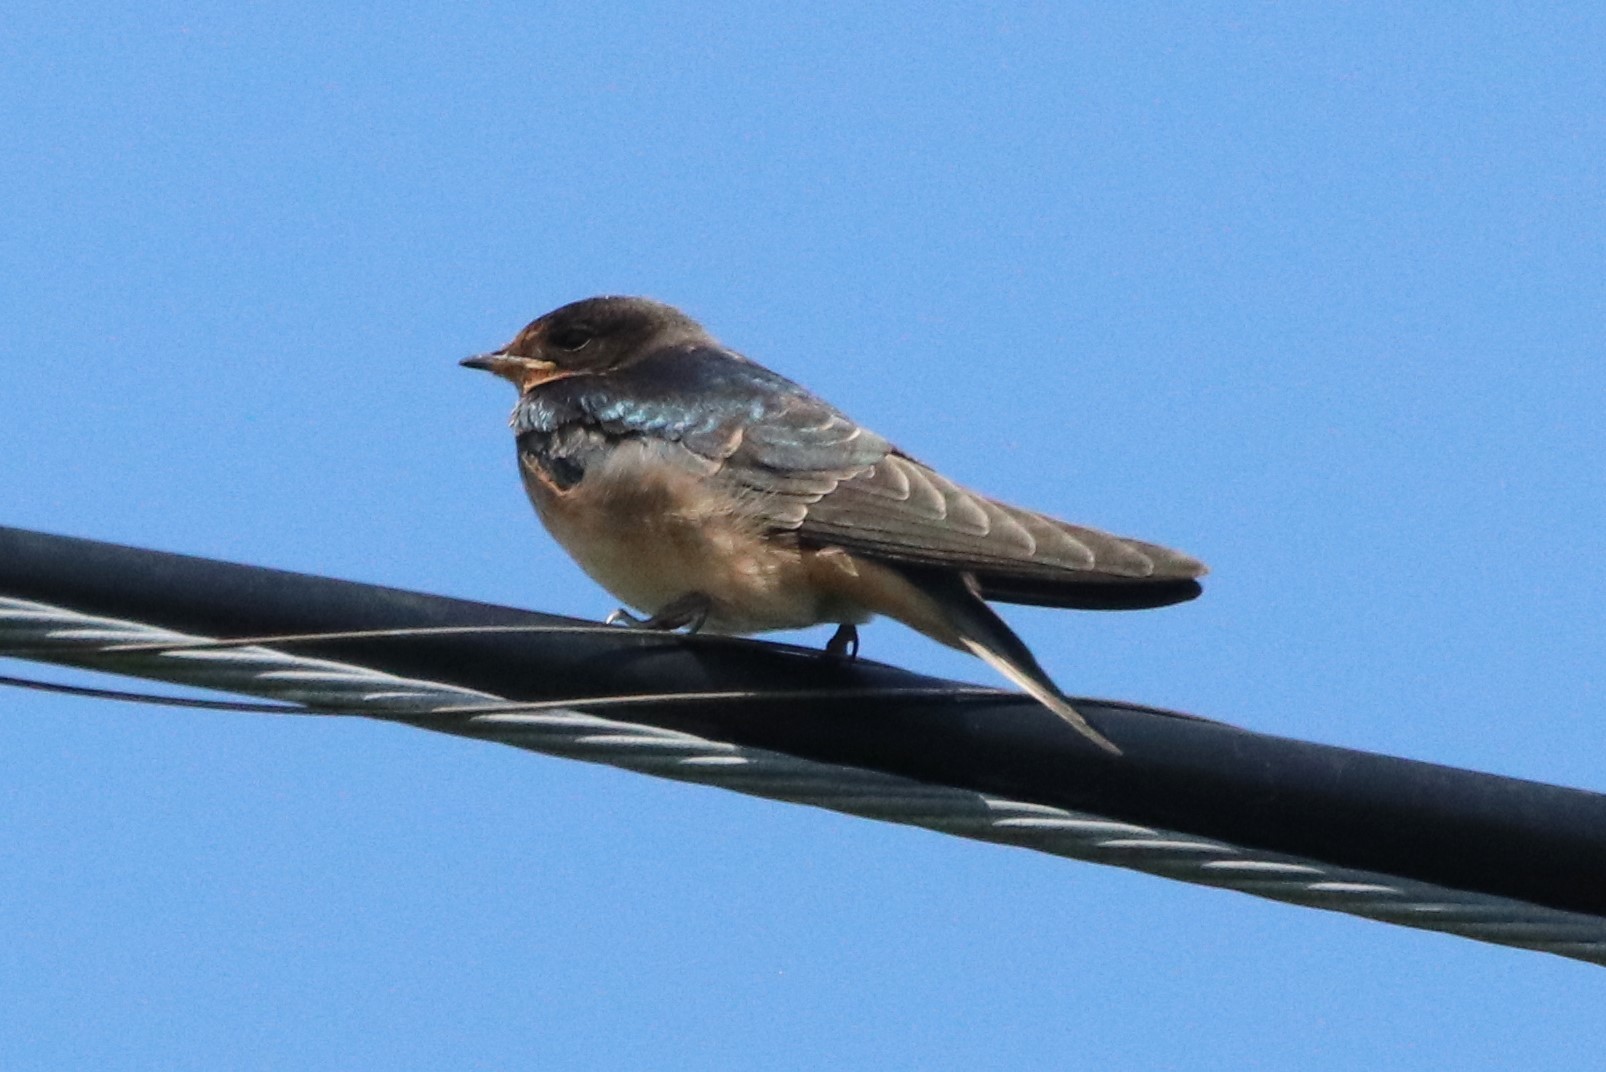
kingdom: Animalia
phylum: Chordata
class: Aves
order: Passeriformes
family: Hirundinidae
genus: Hirundo
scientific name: Hirundo rustica
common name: Barn swallow
